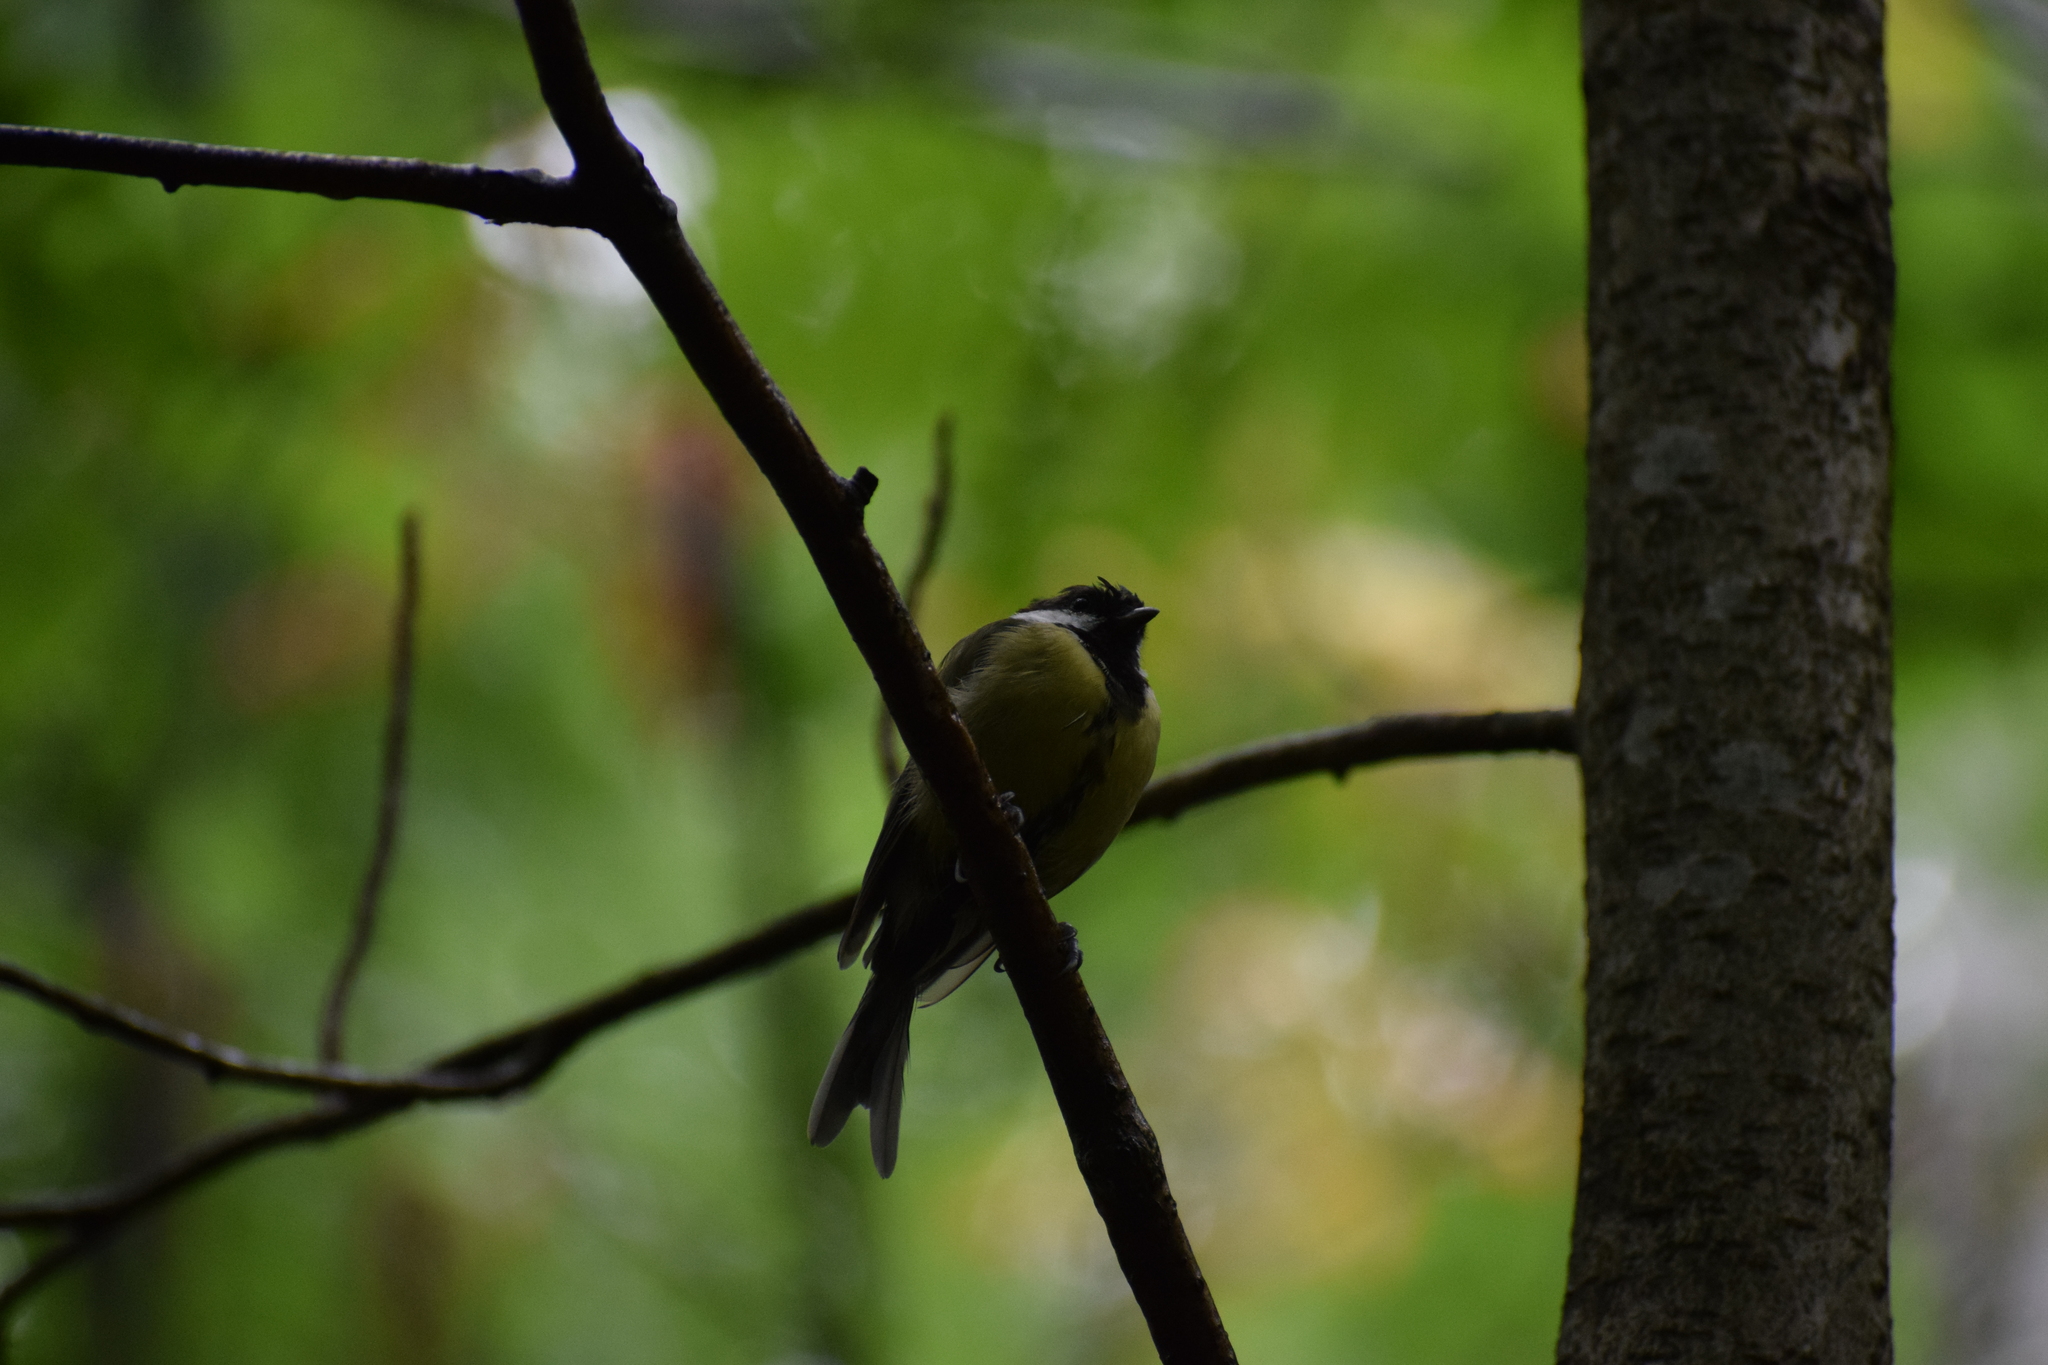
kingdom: Animalia
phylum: Chordata
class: Aves
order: Passeriformes
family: Paridae
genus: Parus
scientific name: Parus major
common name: Great tit
